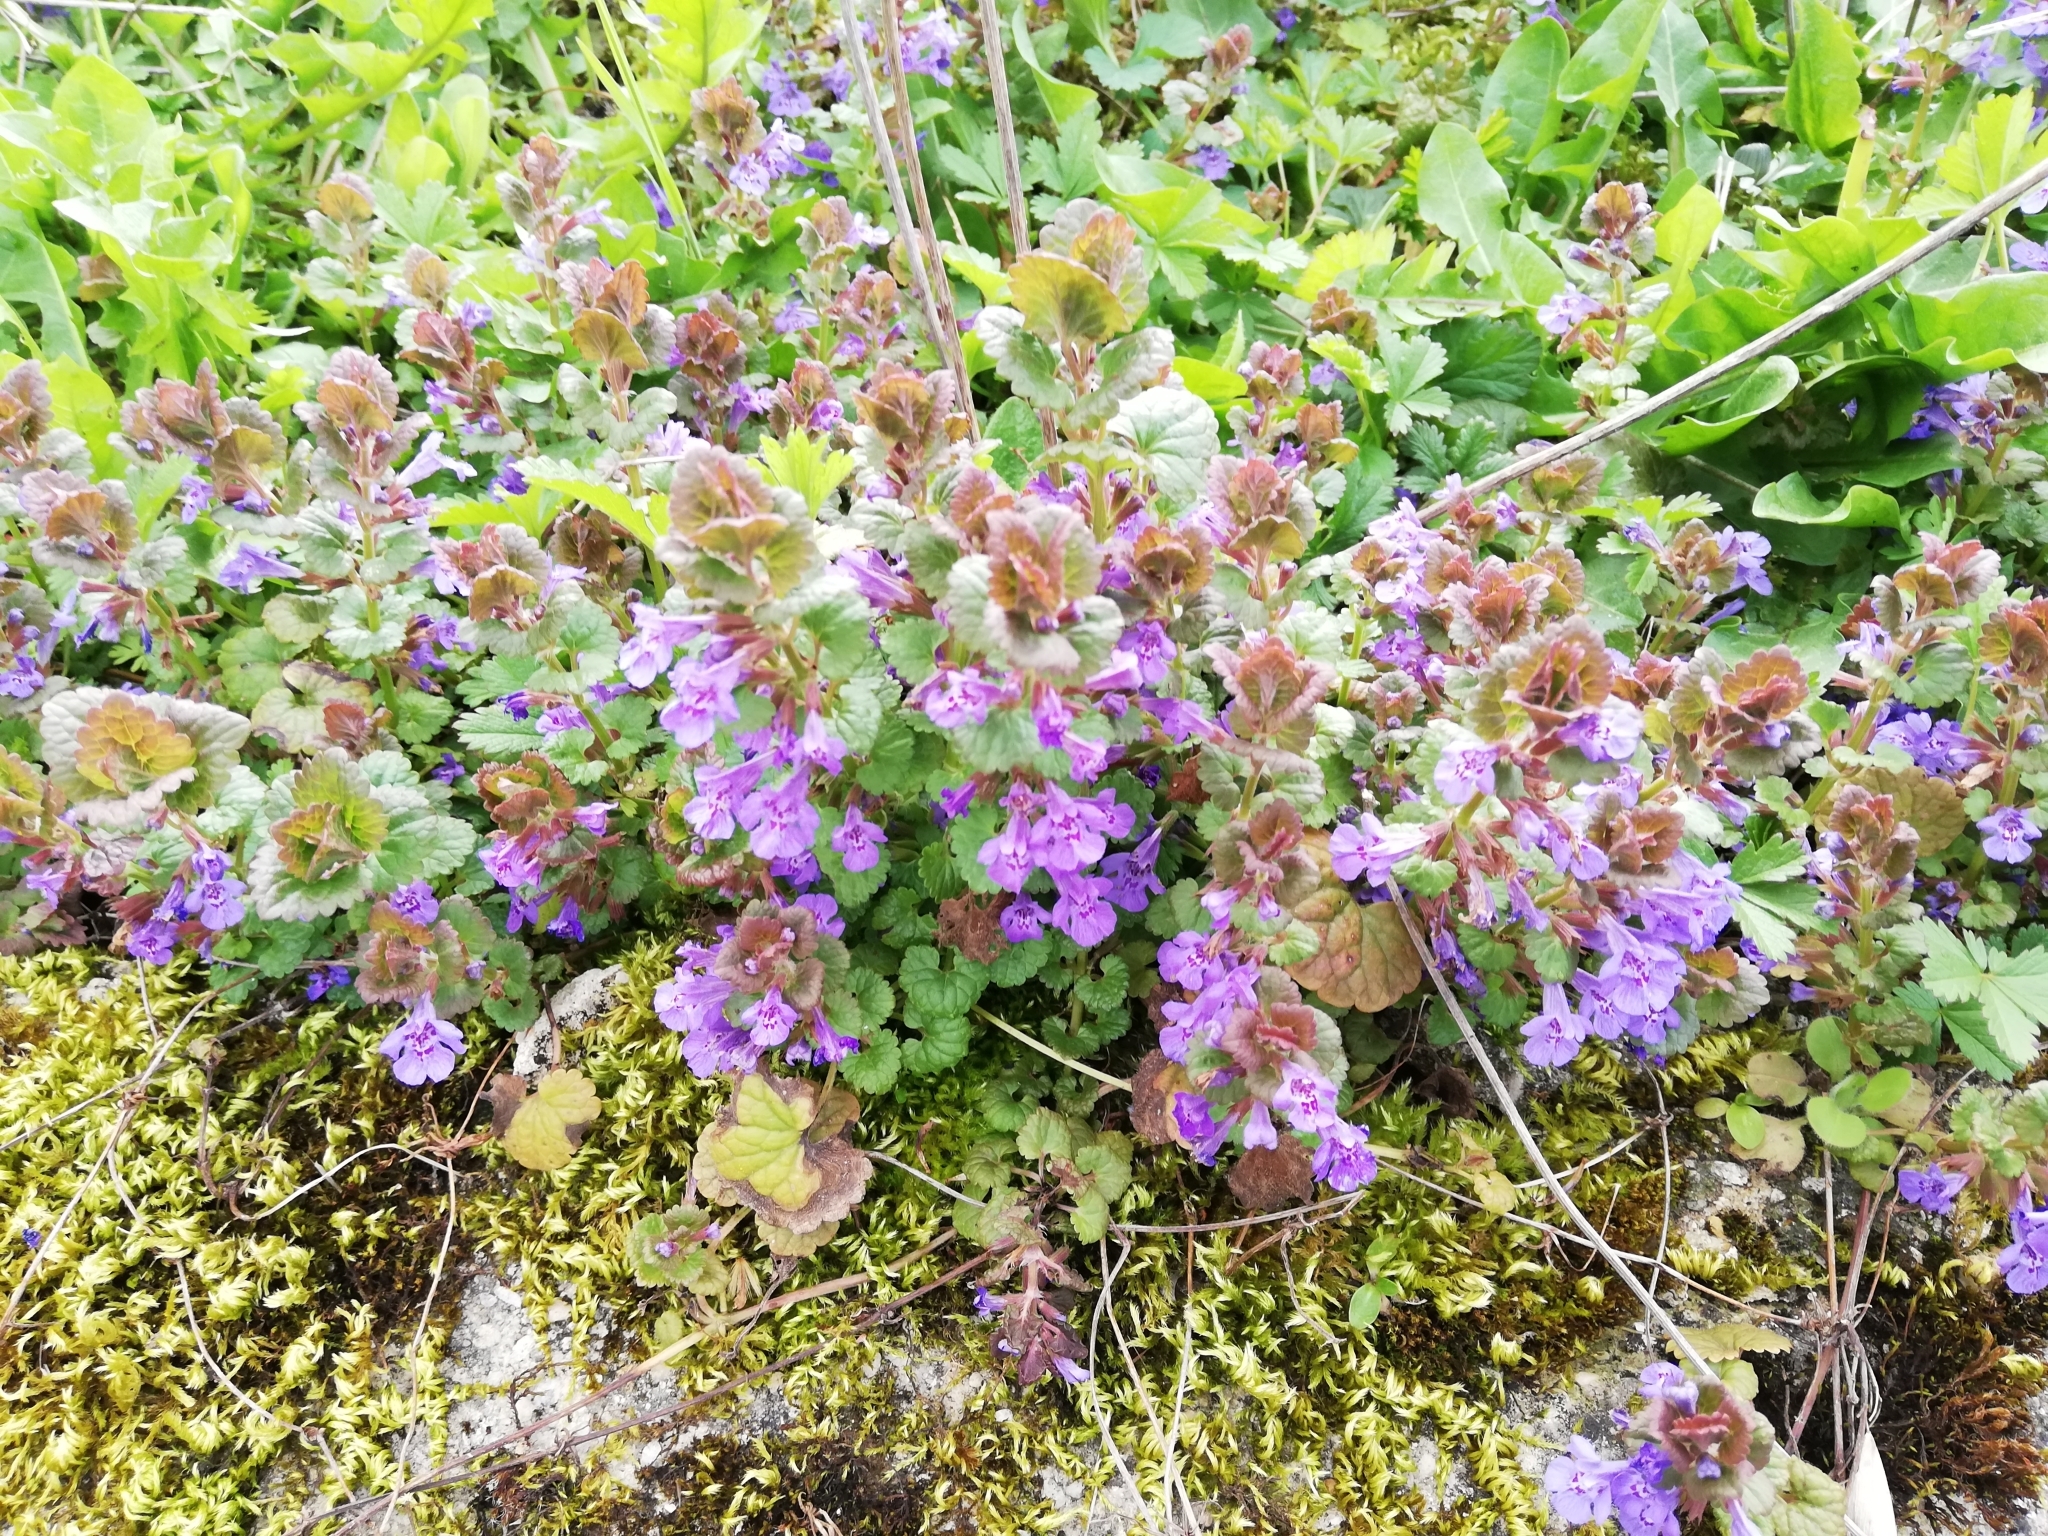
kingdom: Plantae
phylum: Tracheophyta
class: Magnoliopsida
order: Lamiales
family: Lamiaceae
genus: Glechoma
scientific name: Glechoma hederacea
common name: Ground ivy
